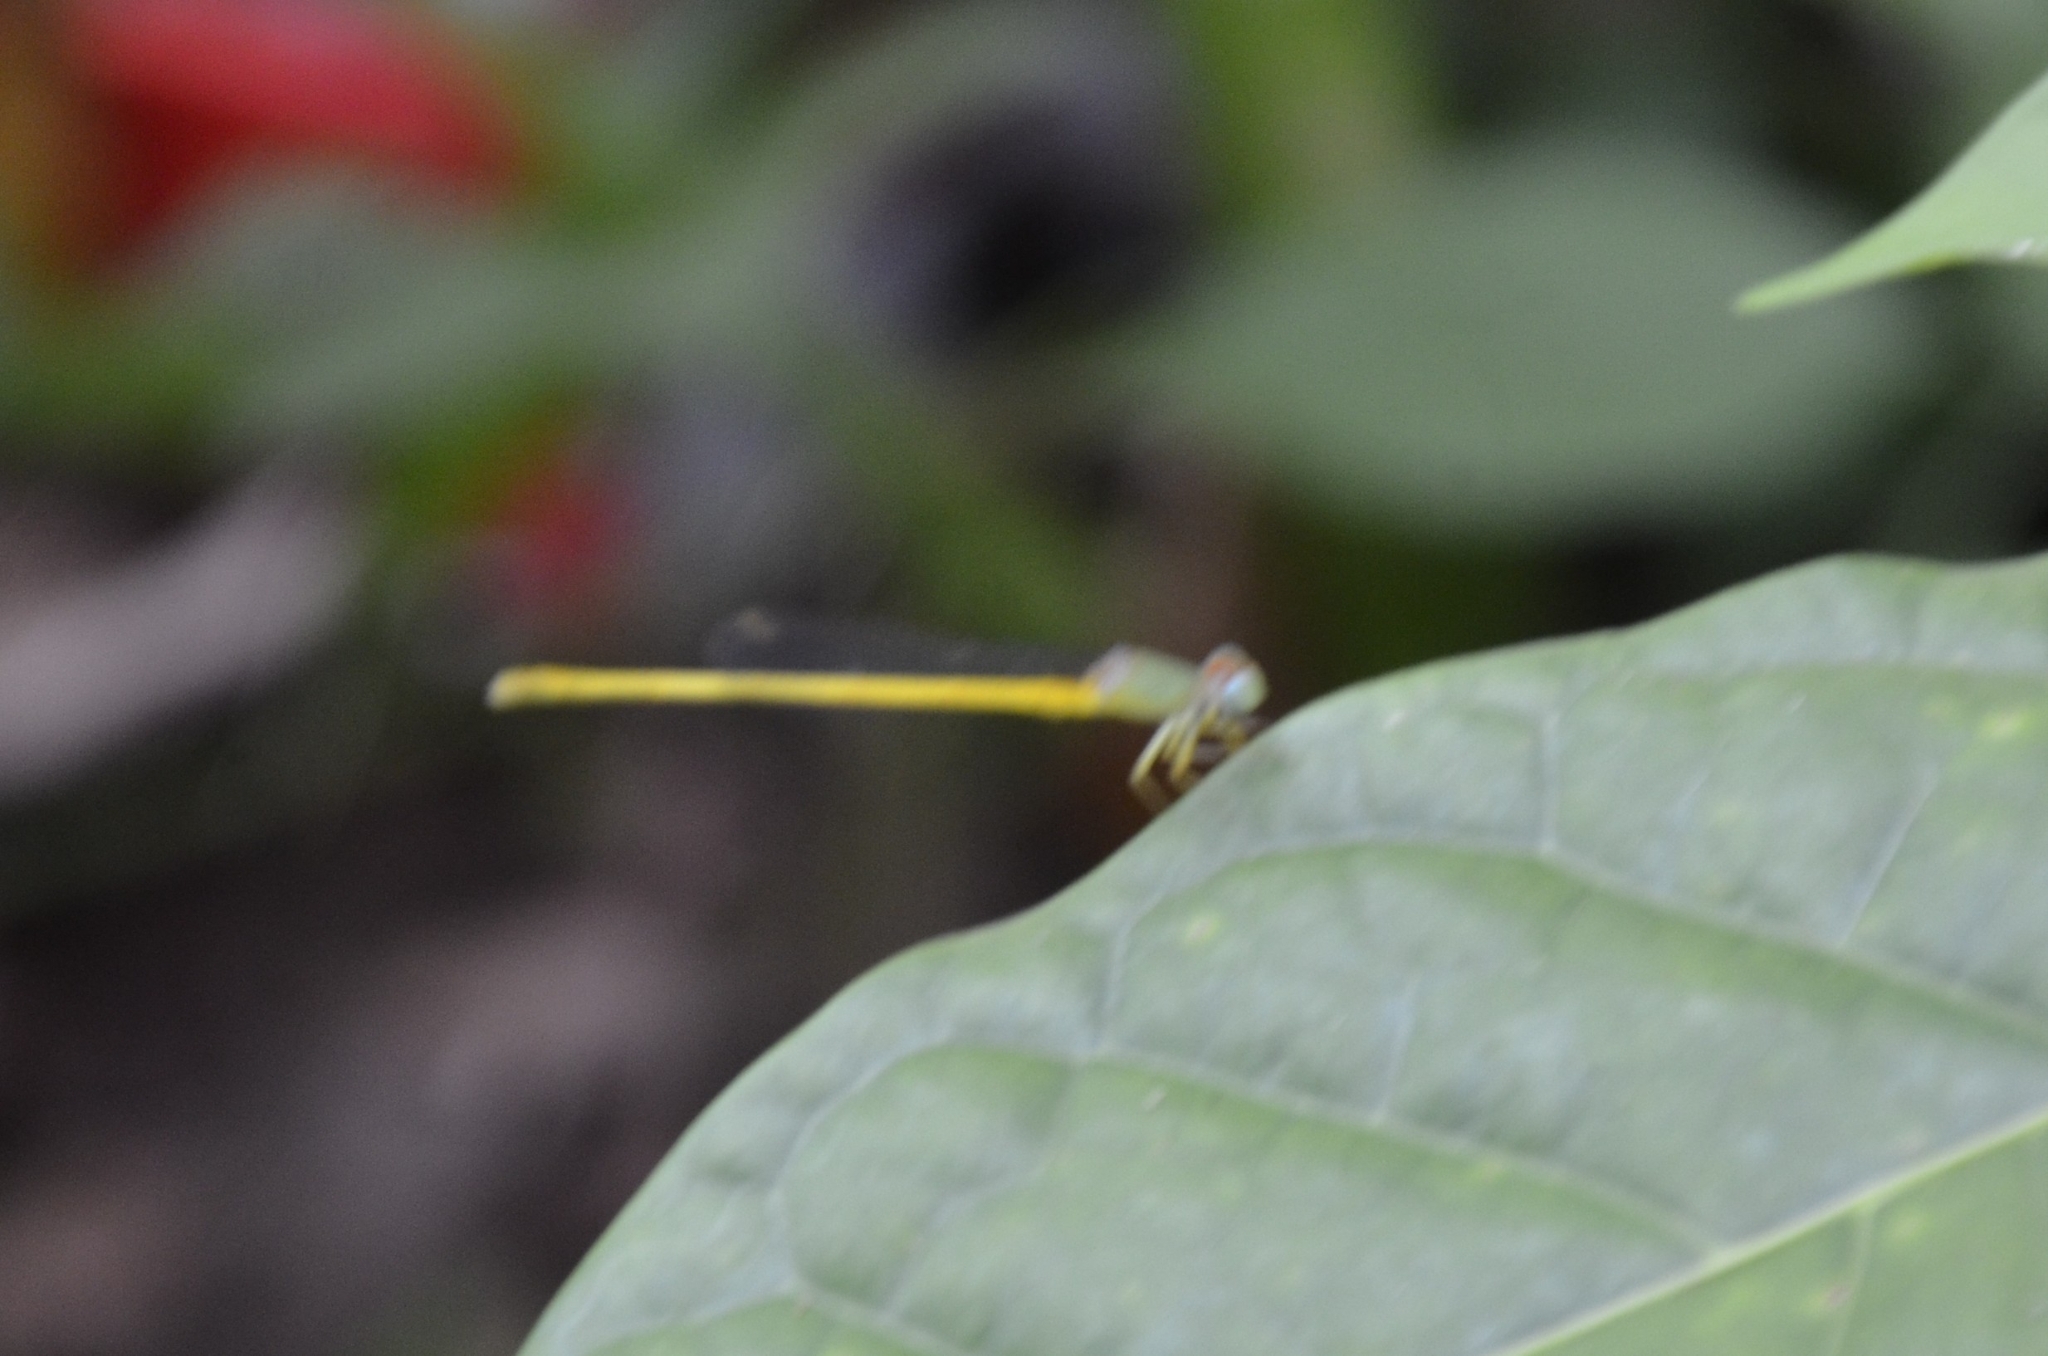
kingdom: Animalia
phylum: Arthropoda
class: Insecta
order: Odonata
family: Coenagrionidae
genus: Ceriagrion
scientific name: Ceriagrion coromandelianum
